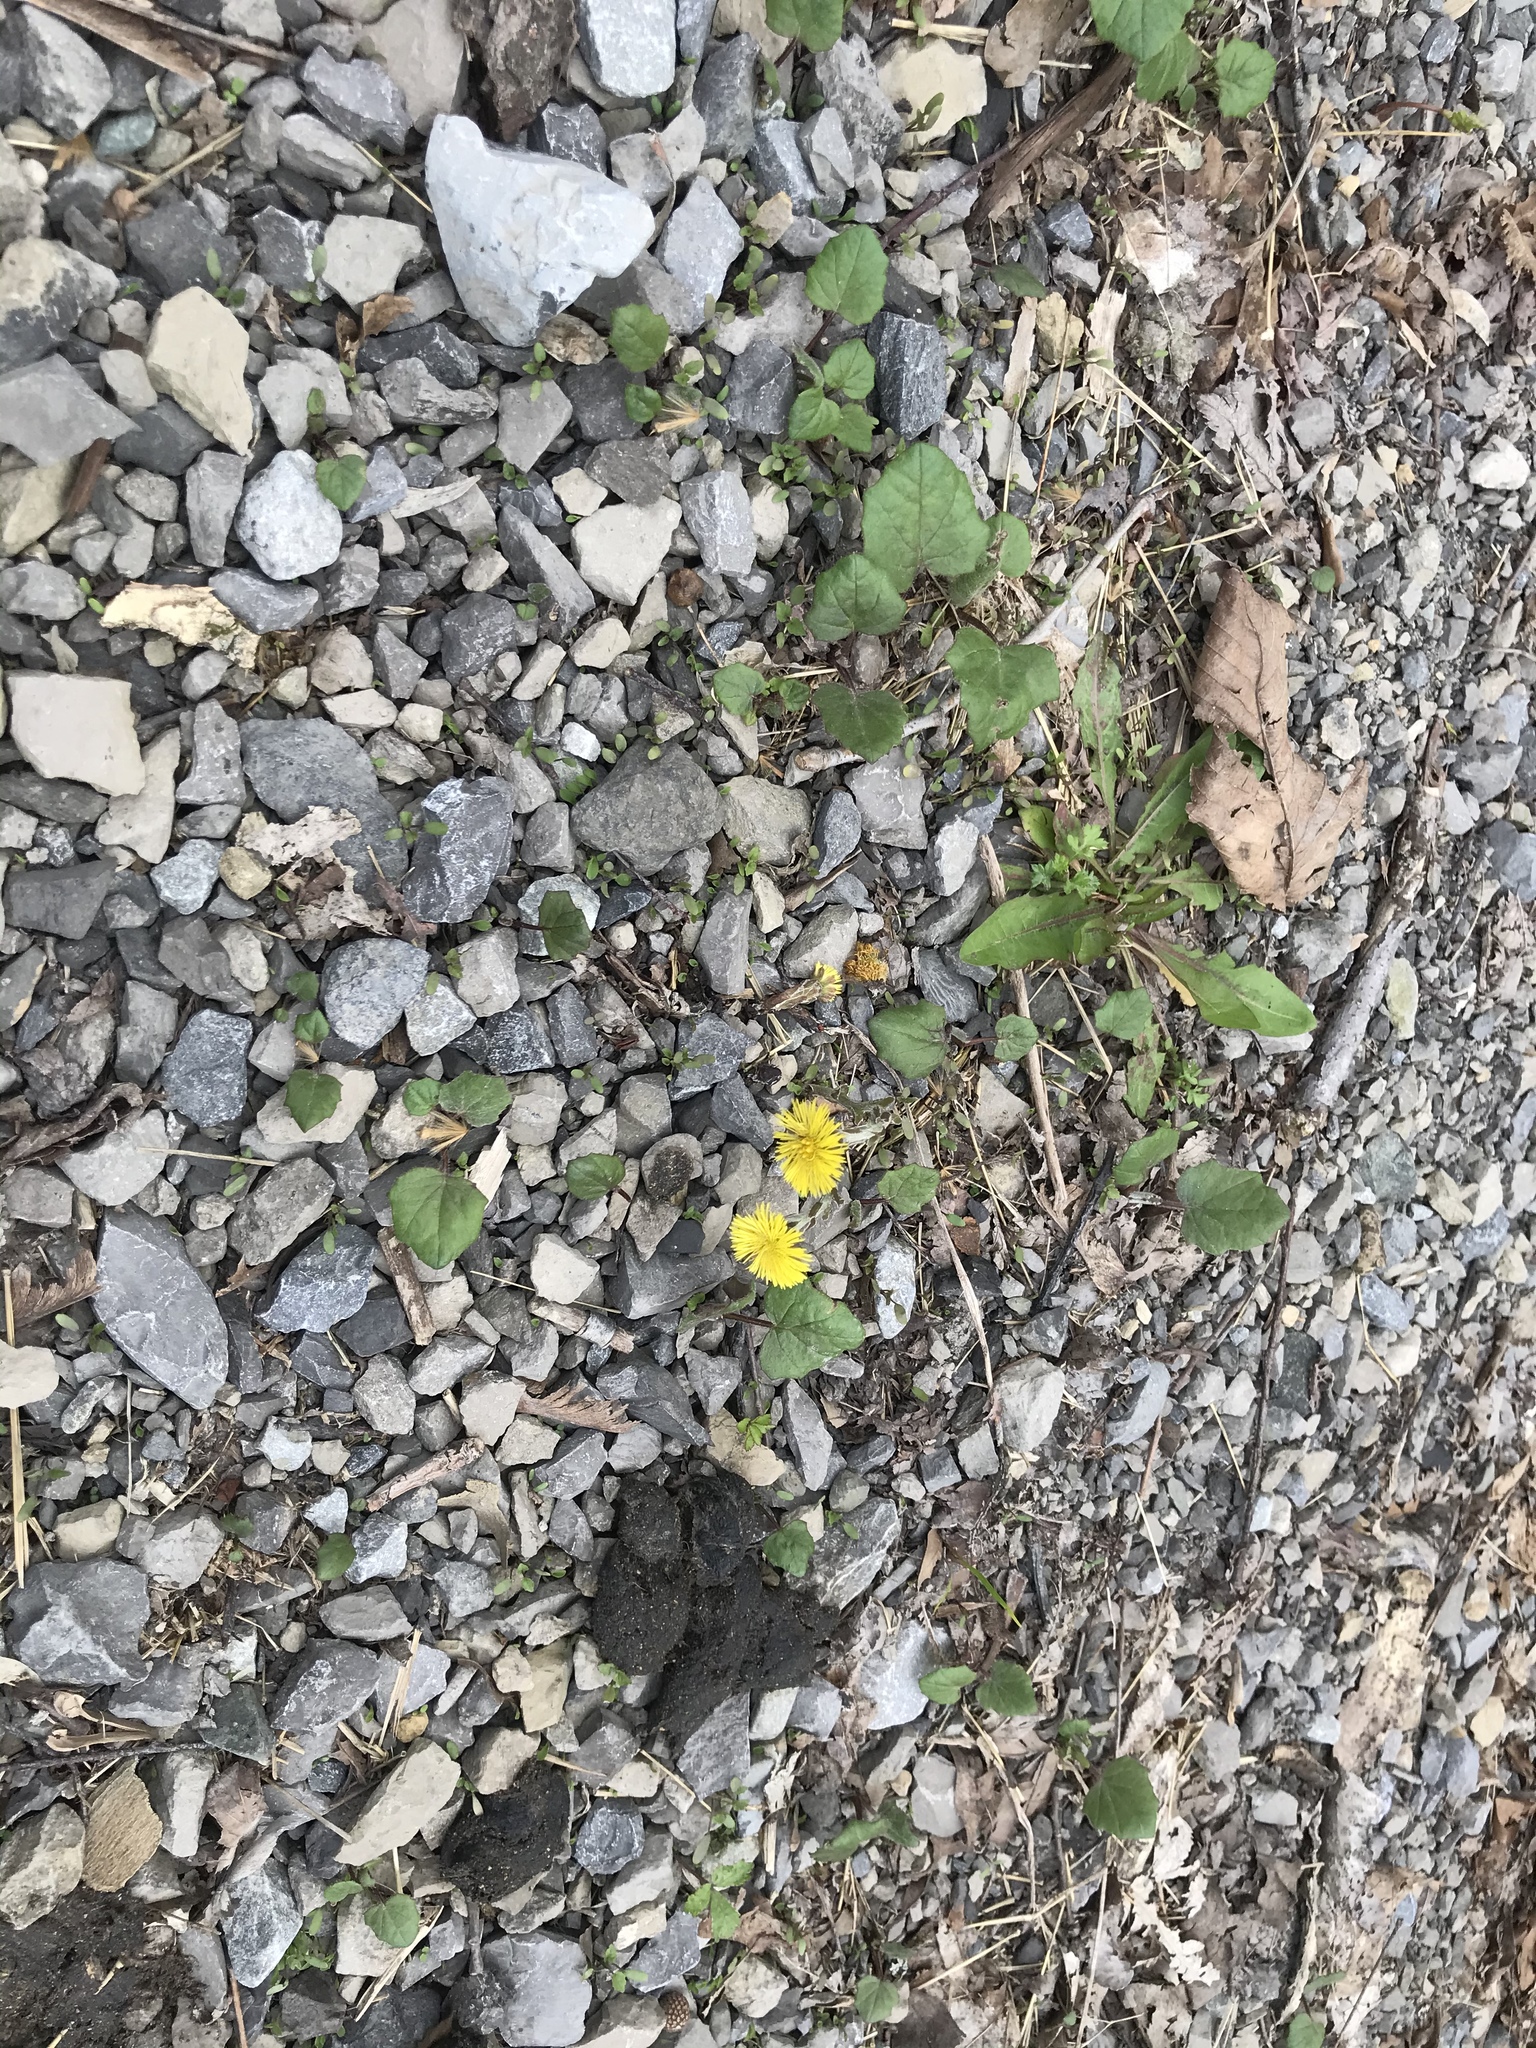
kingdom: Plantae
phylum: Tracheophyta
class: Magnoliopsida
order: Asterales
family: Asteraceae
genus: Tussilago
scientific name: Tussilago farfara
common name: Coltsfoot
